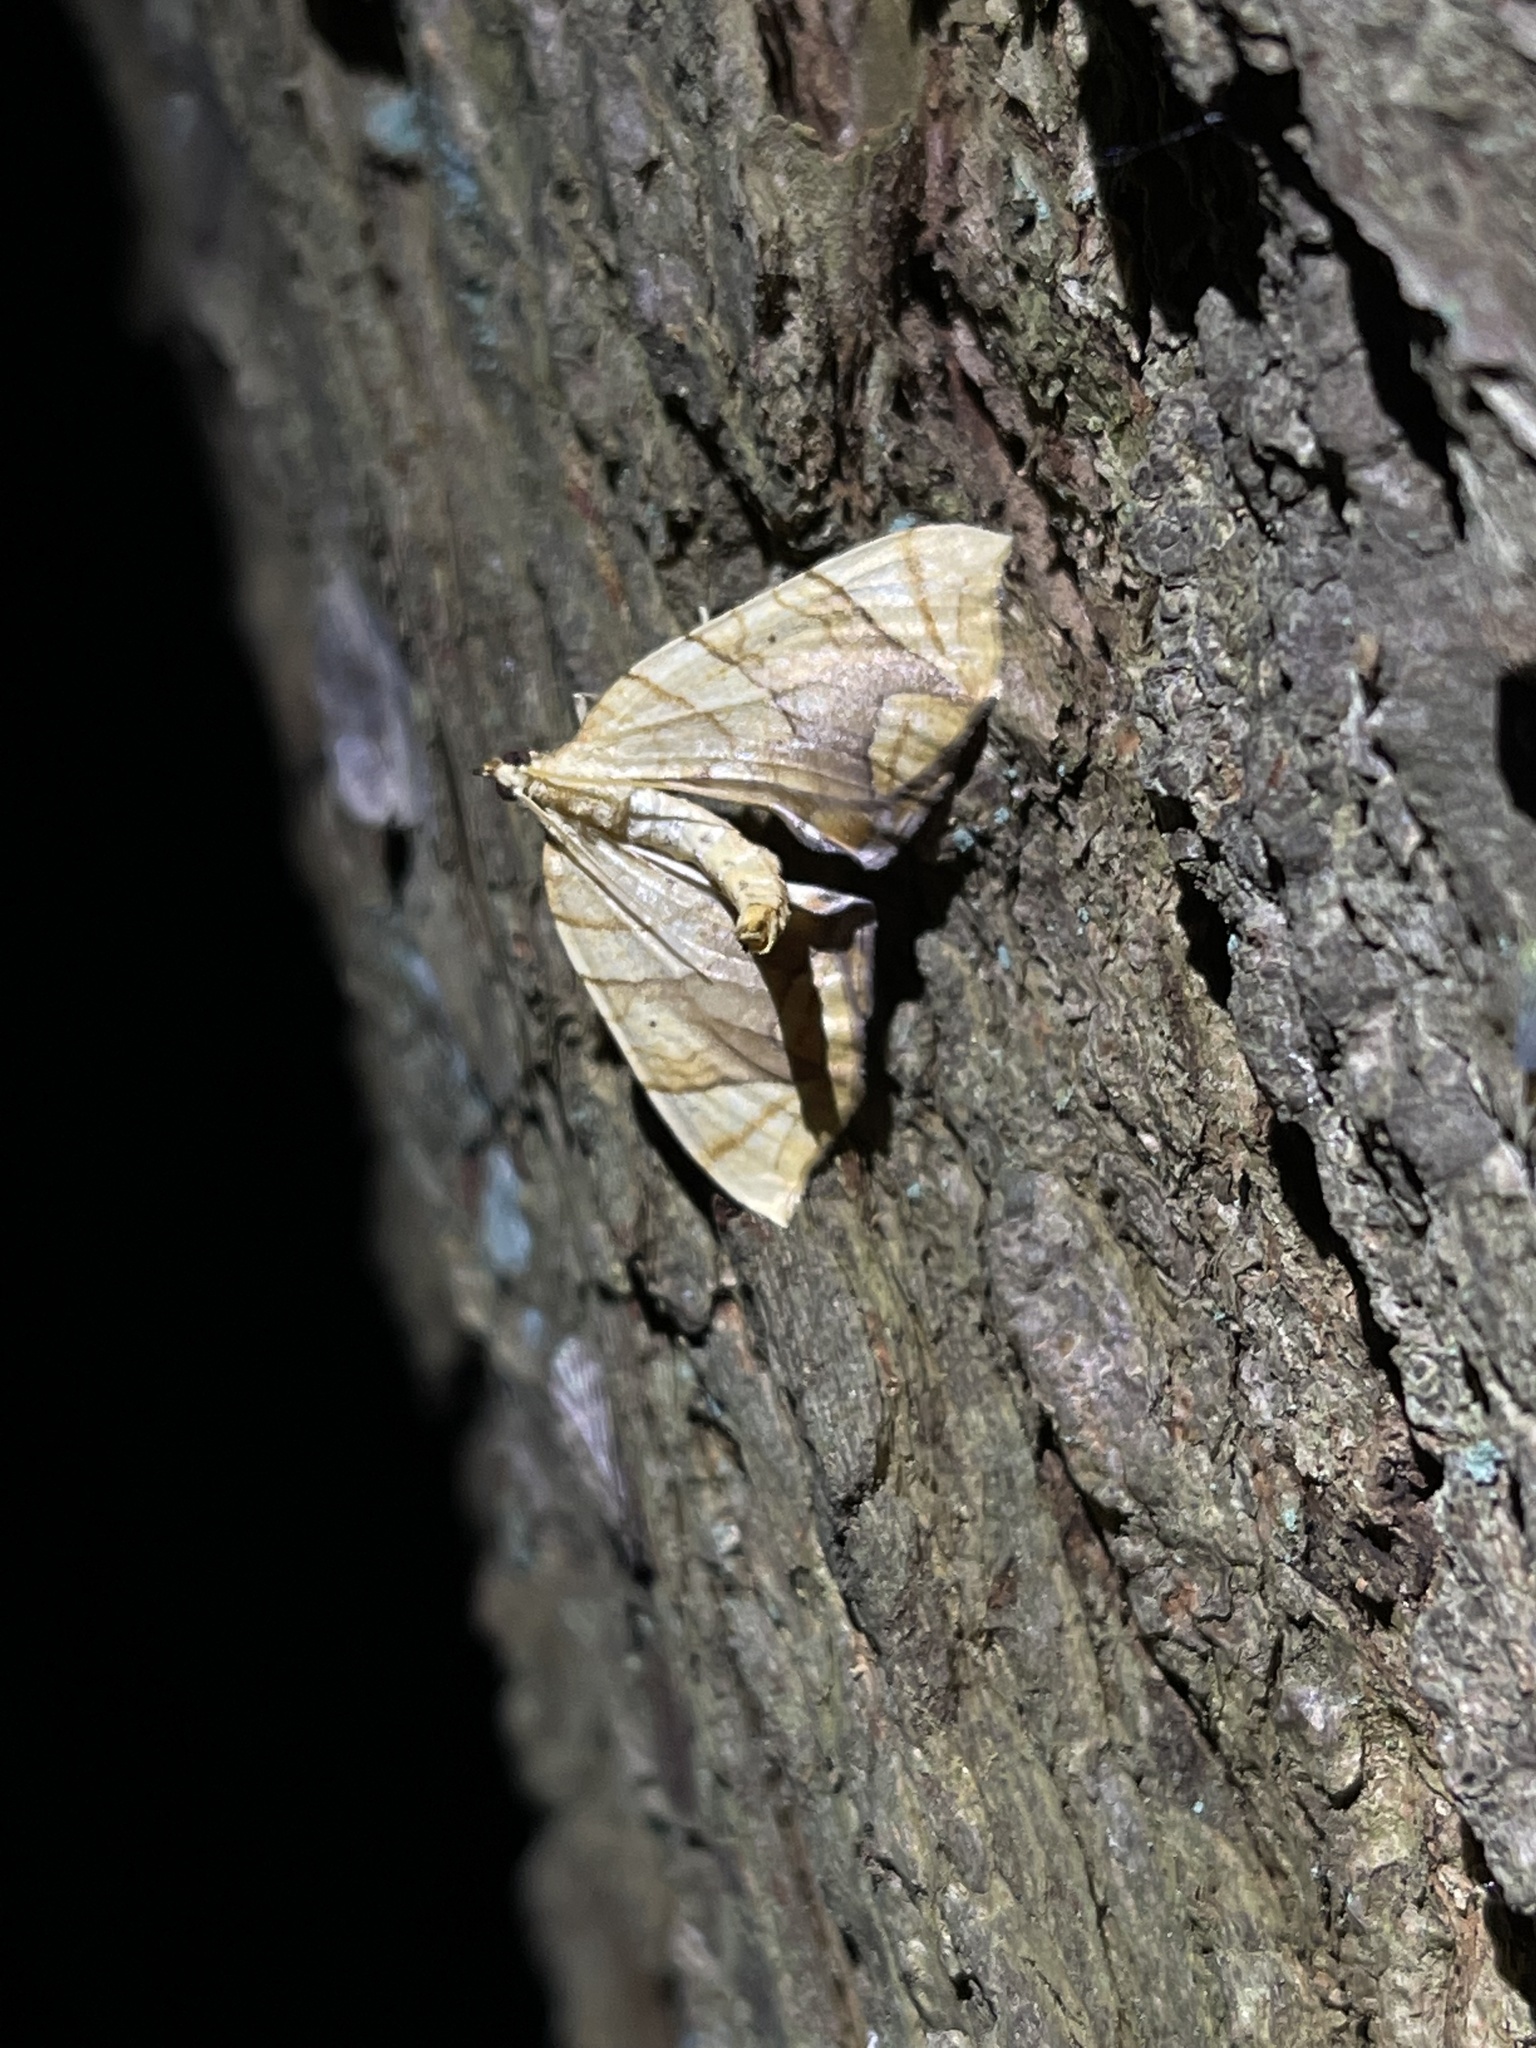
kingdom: Animalia
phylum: Arthropoda
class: Insecta
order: Lepidoptera
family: Geometridae
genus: Eulithis
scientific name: Eulithis diversilineata
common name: Grapevine looper
